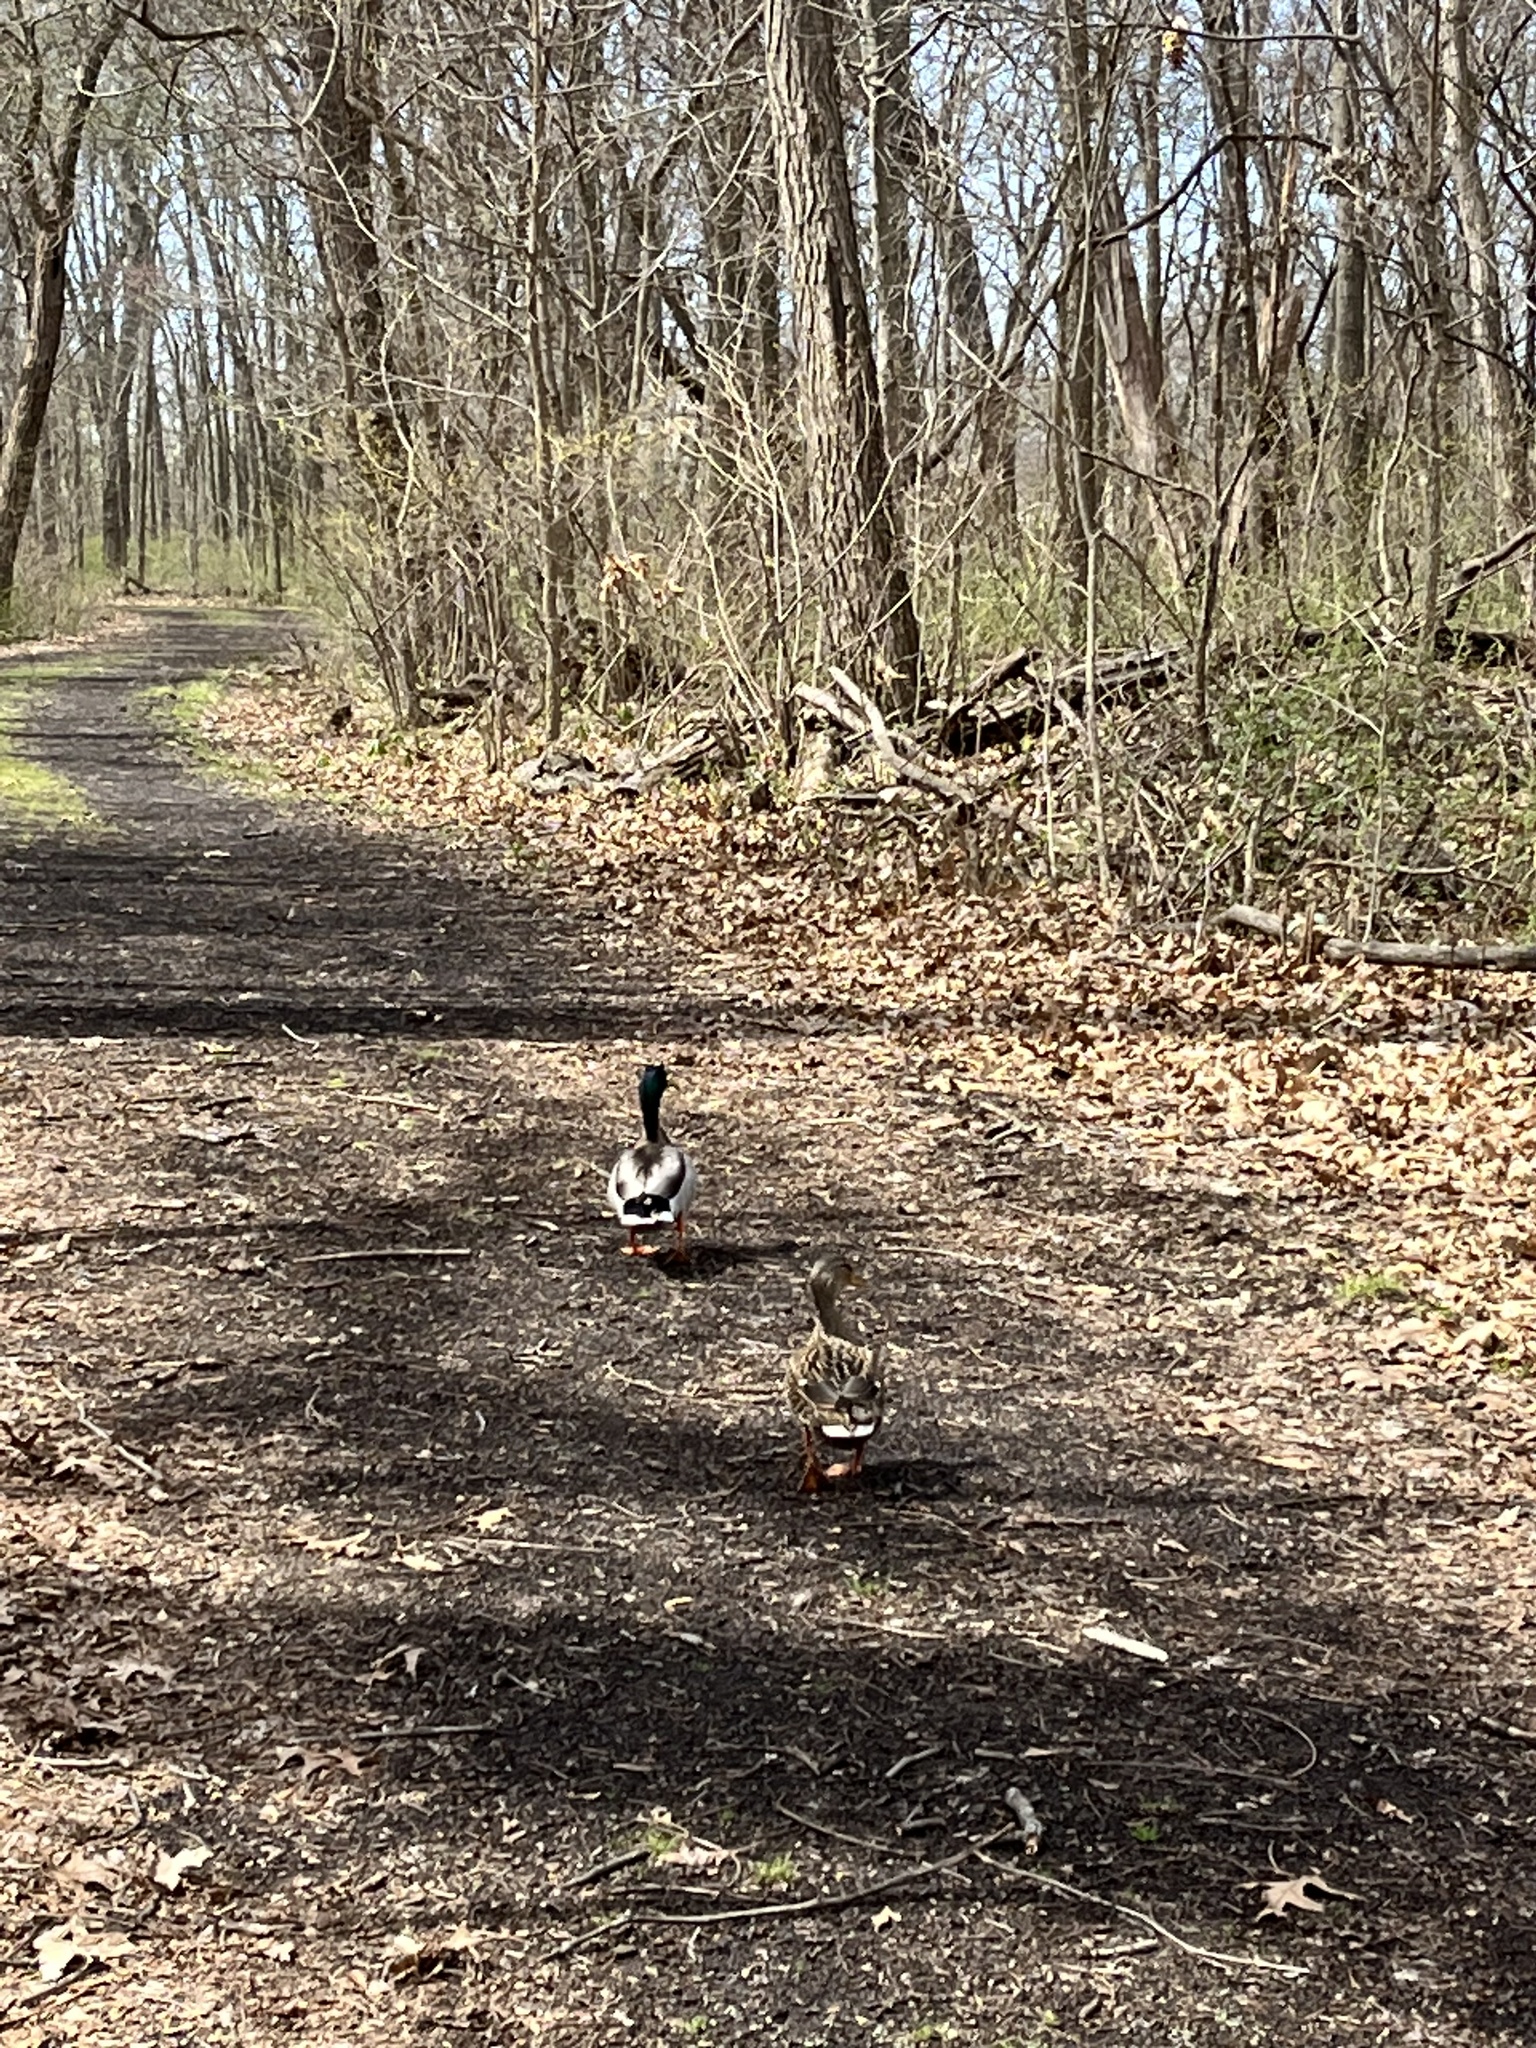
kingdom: Animalia
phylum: Chordata
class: Aves
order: Anseriformes
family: Anatidae
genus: Anas
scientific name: Anas platyrhynchos
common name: Mallard
